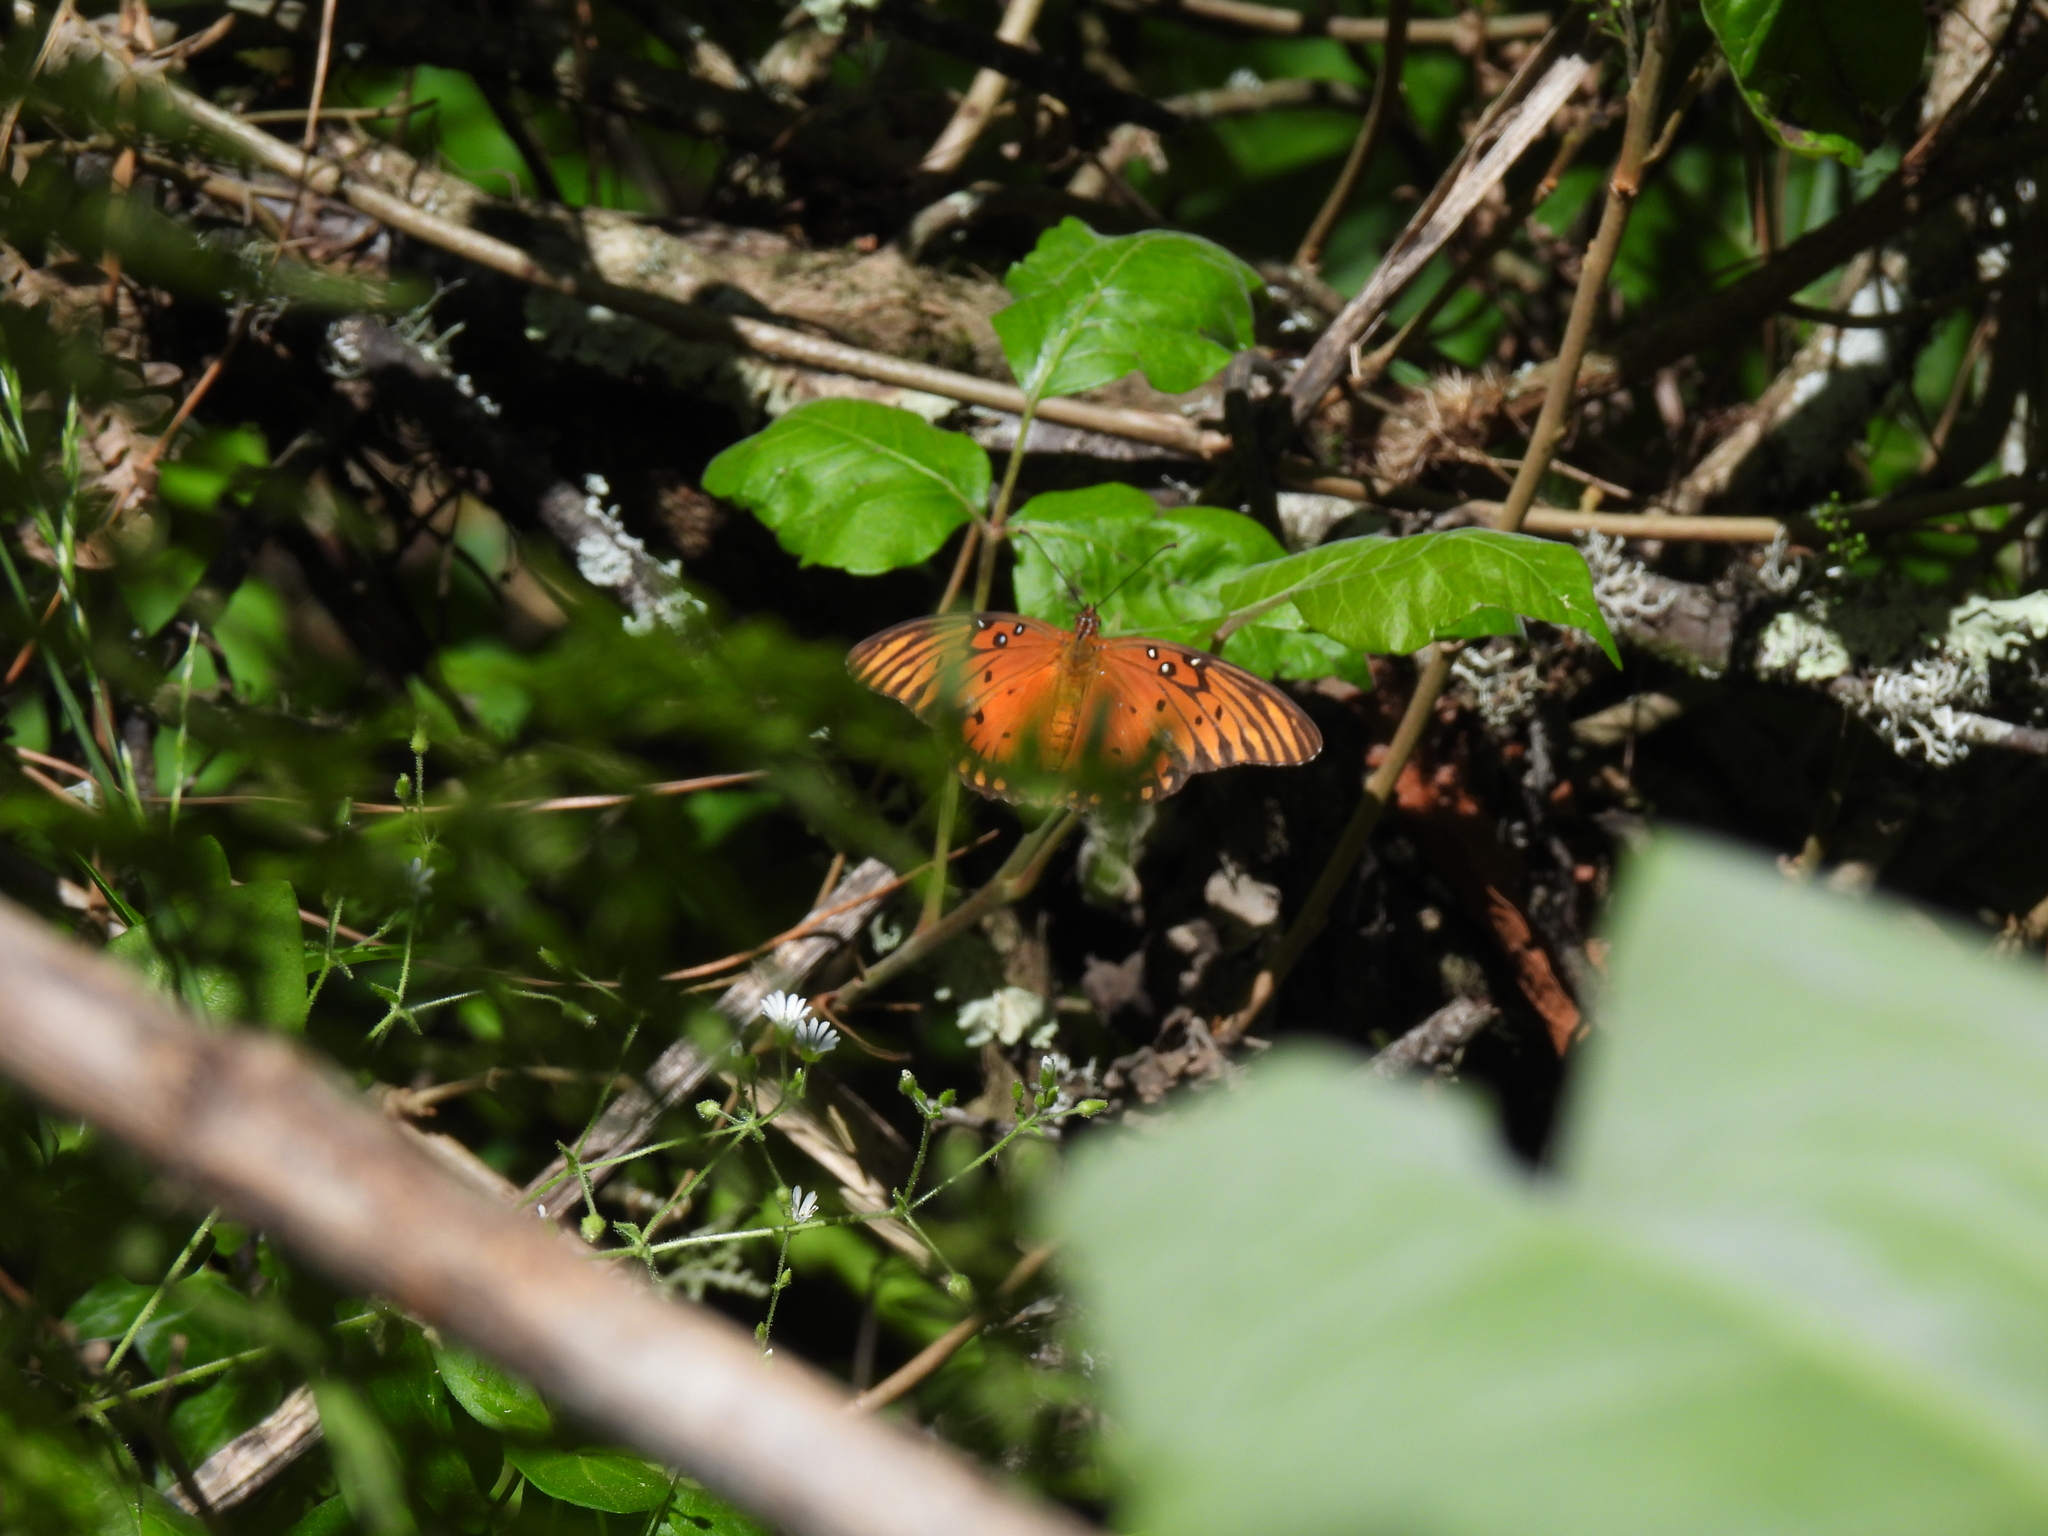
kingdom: Animalia
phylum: Arthropoda
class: Insecta
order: Lepidoptera
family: Nymphalidae
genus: Dione
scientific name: Dione vanillae
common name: Gulf fritillary
